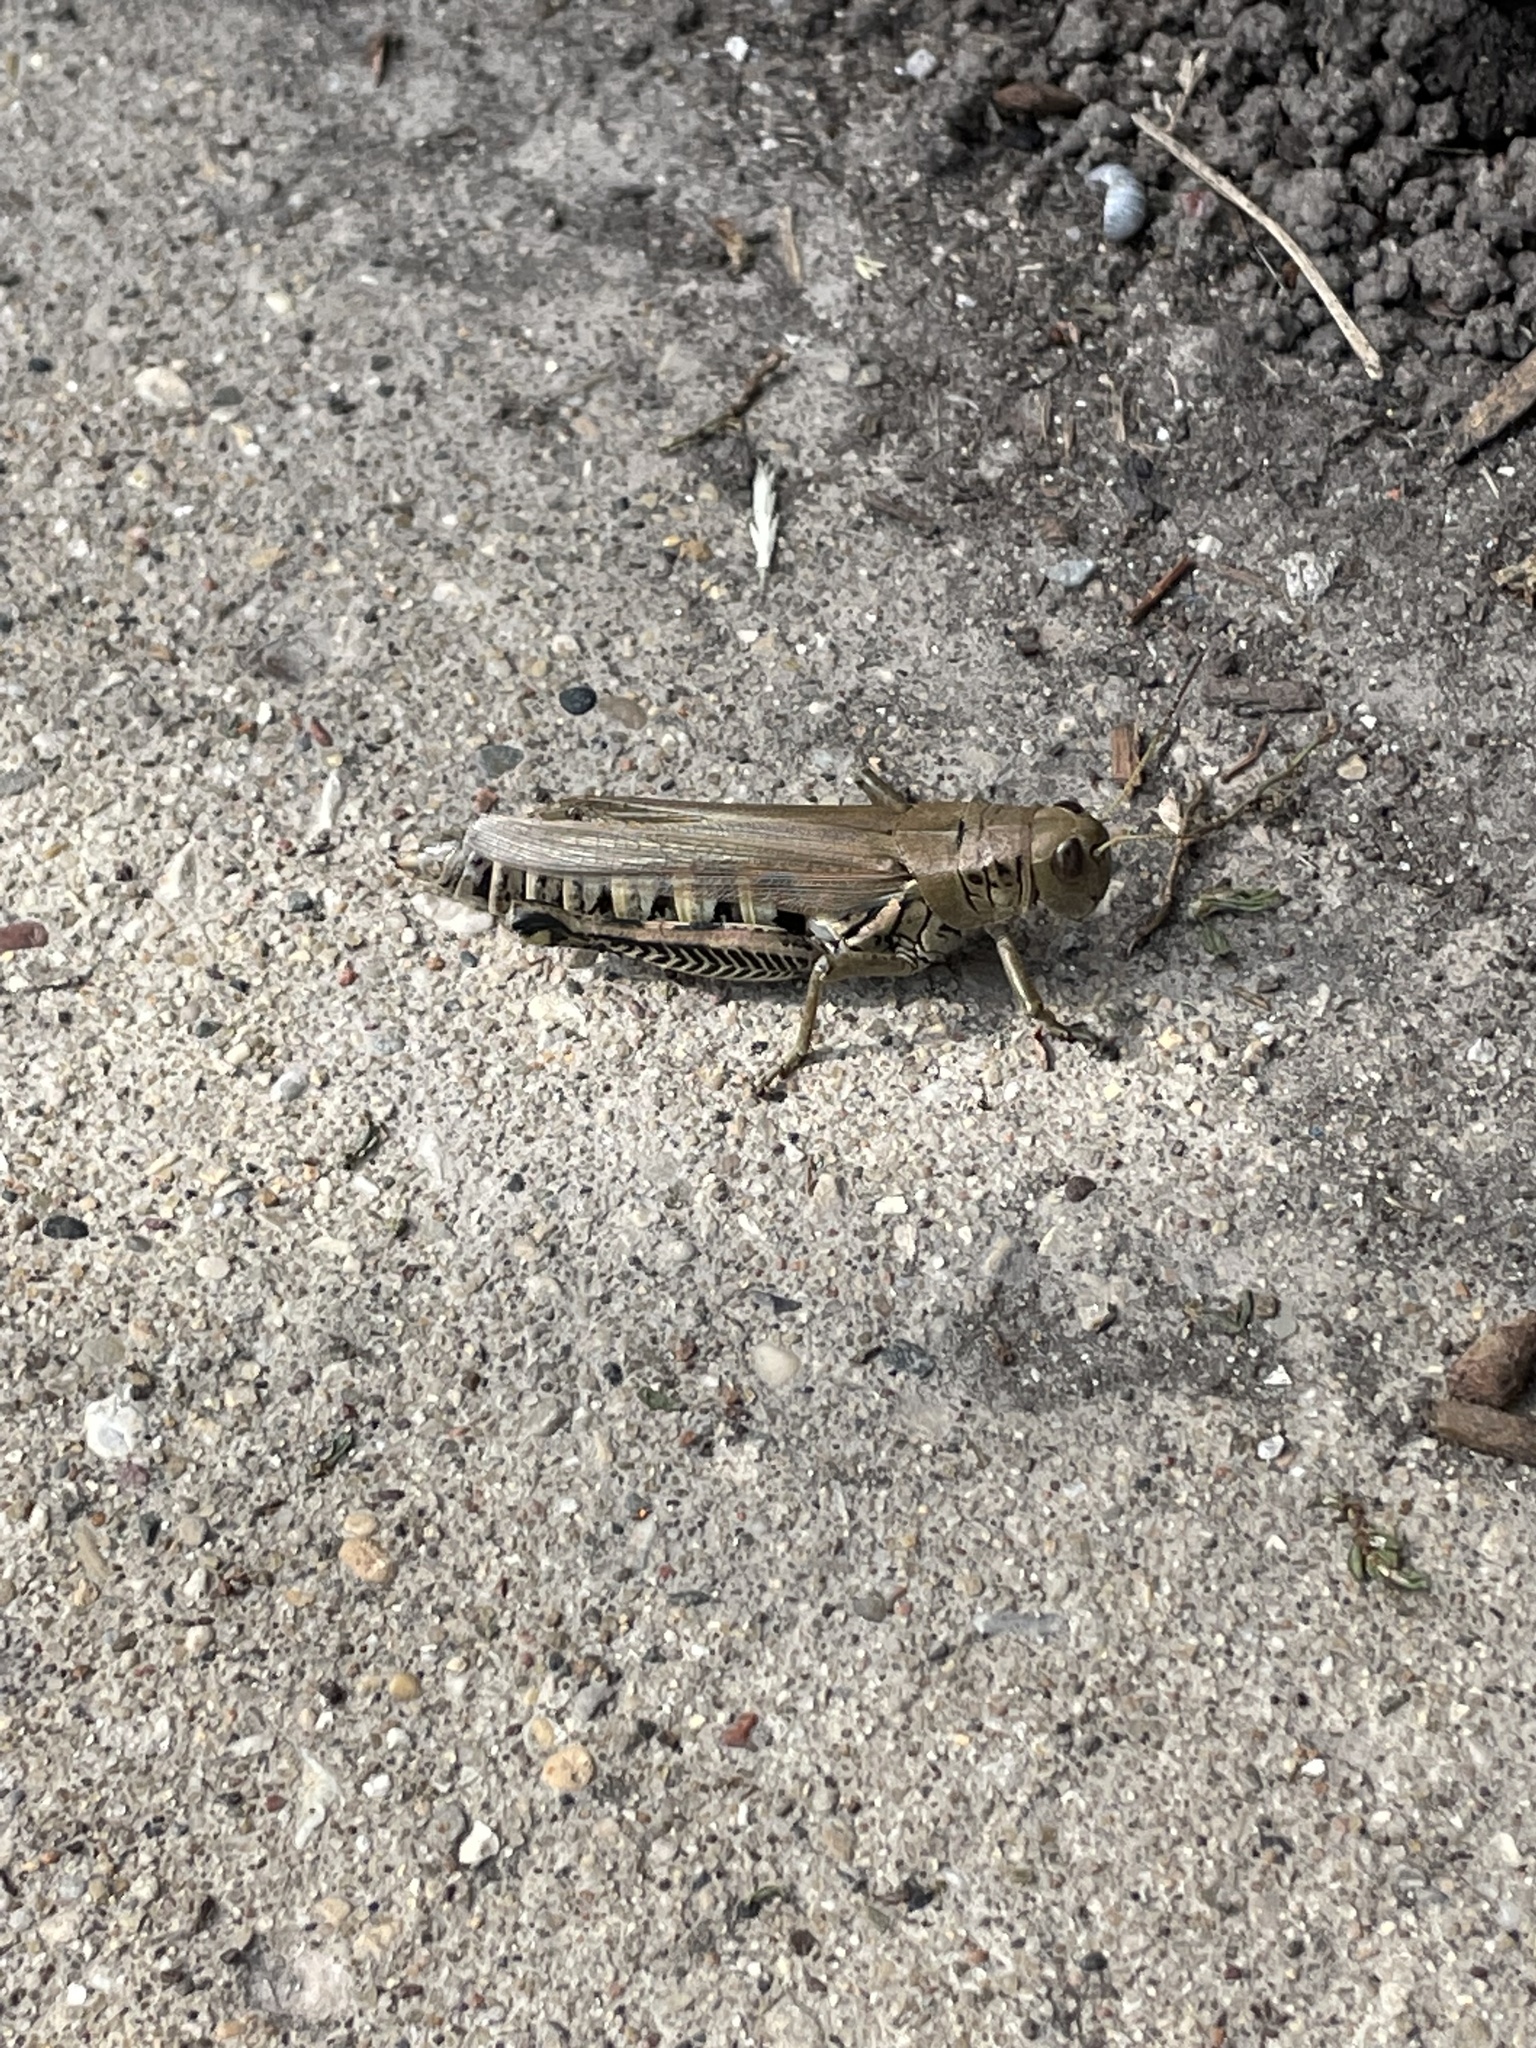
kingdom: Animalia
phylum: Arthropoda
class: Insecta
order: Orthoptera
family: Acrididae
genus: Melanoplus
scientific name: Melanoplus differentialis
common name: Differential grasshopper
